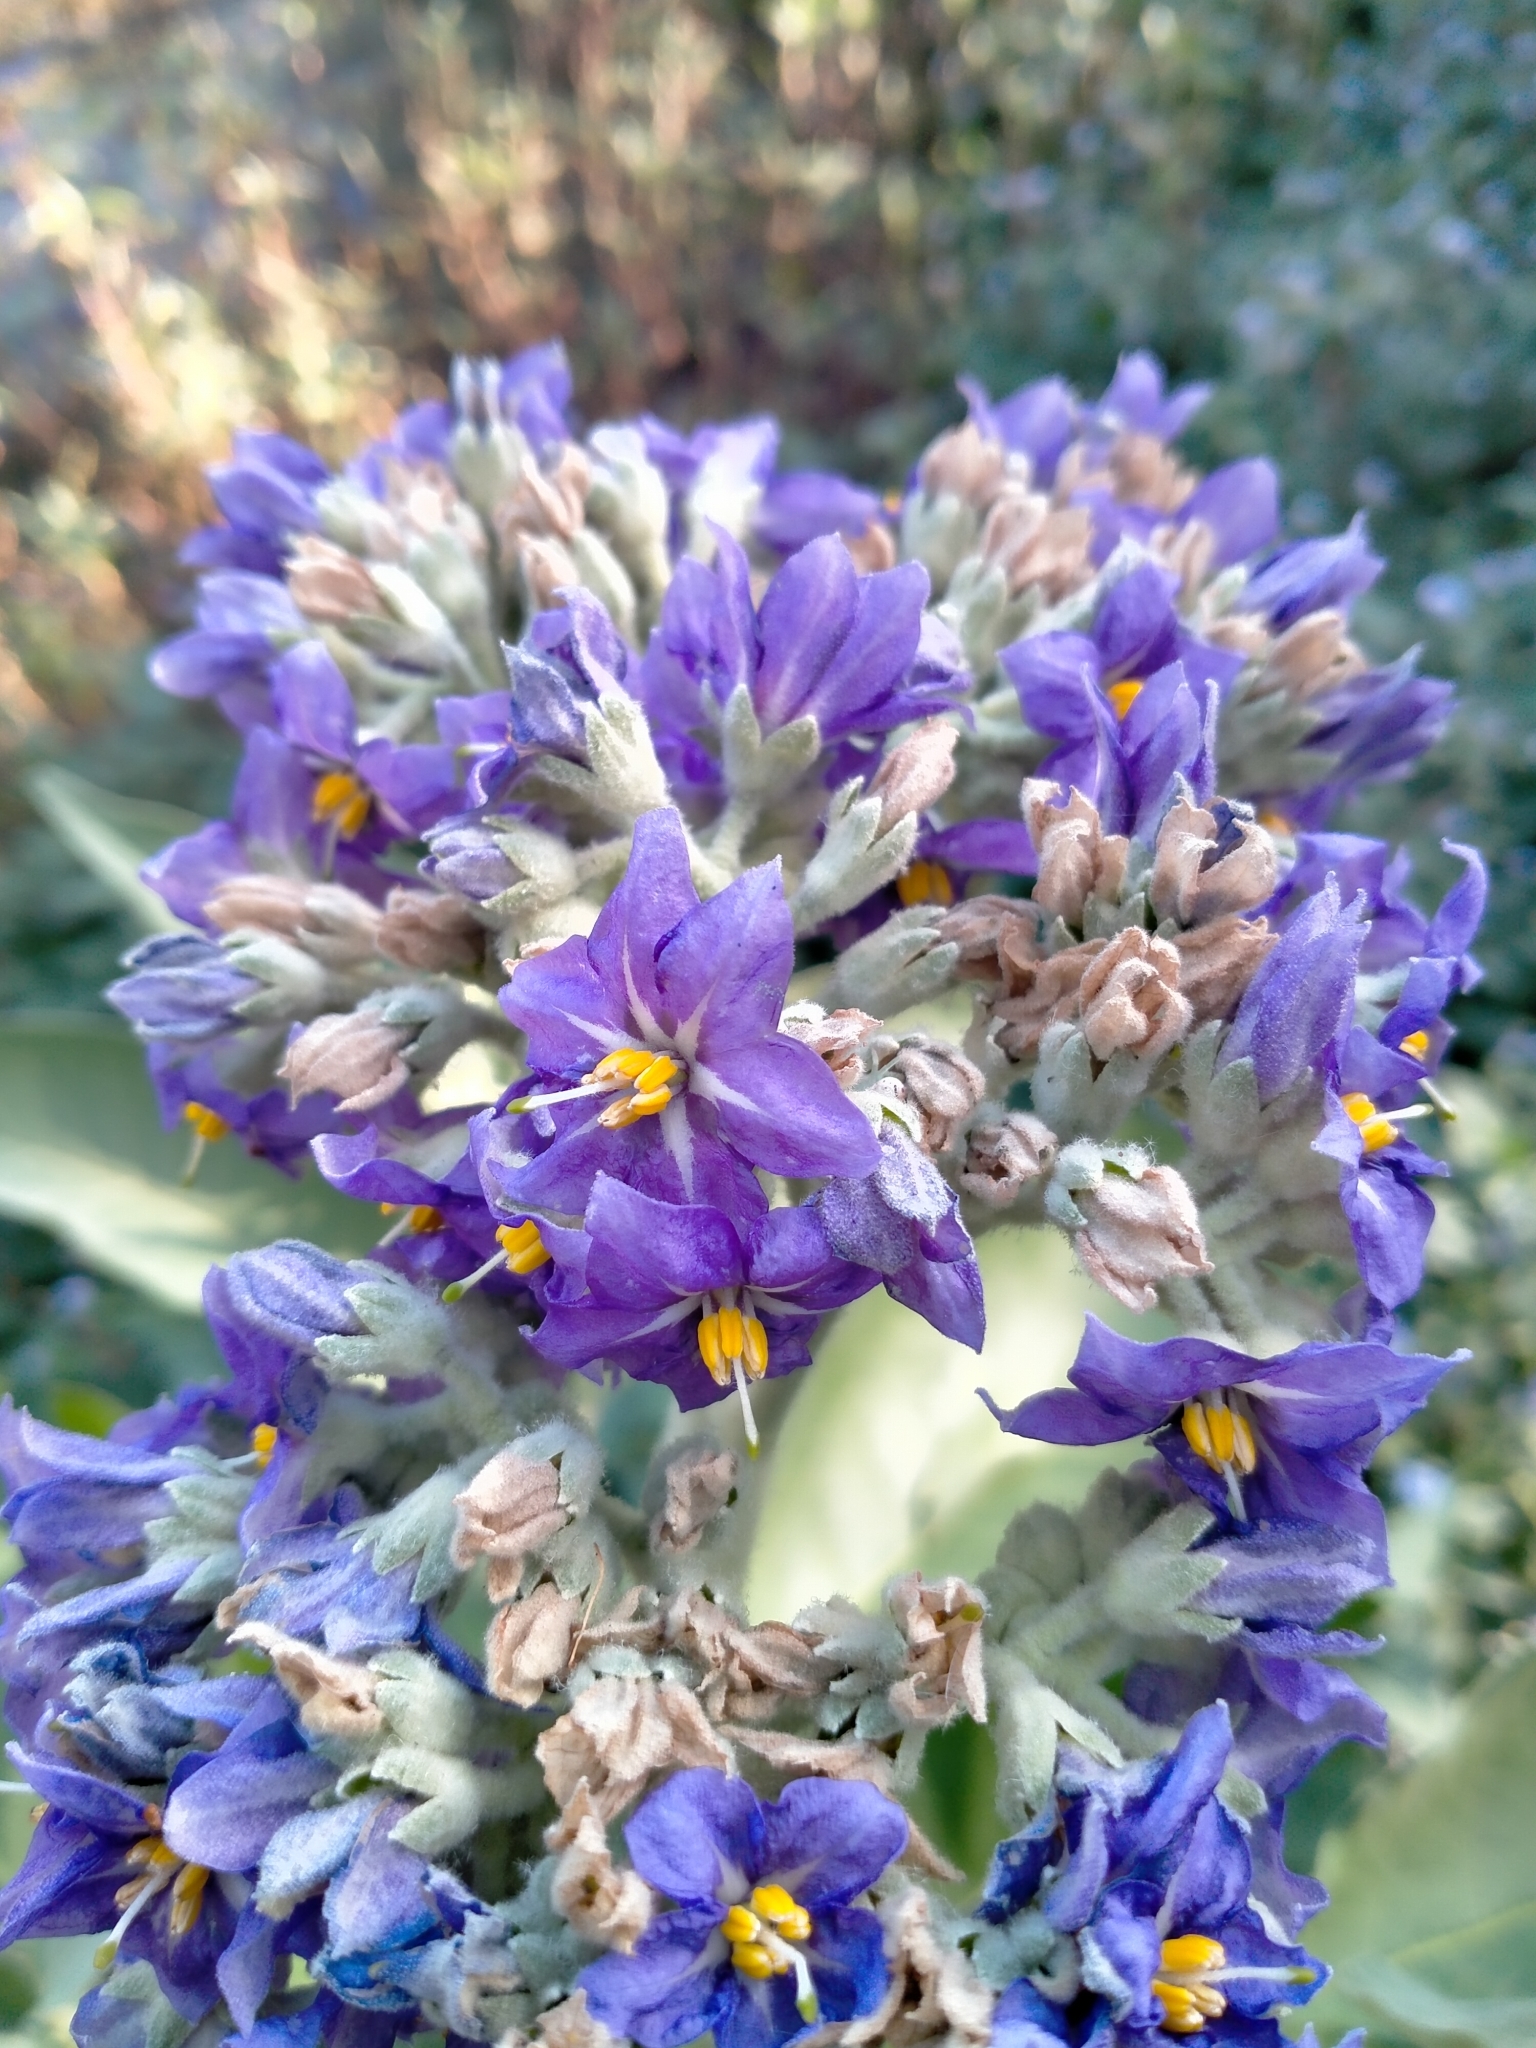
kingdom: Plantae
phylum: Tracheophyta
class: Magnoliopsida
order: Solanales
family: Solanaceae
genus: Solanum
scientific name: Solanum mauritianum
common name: Earleaf nightshade
